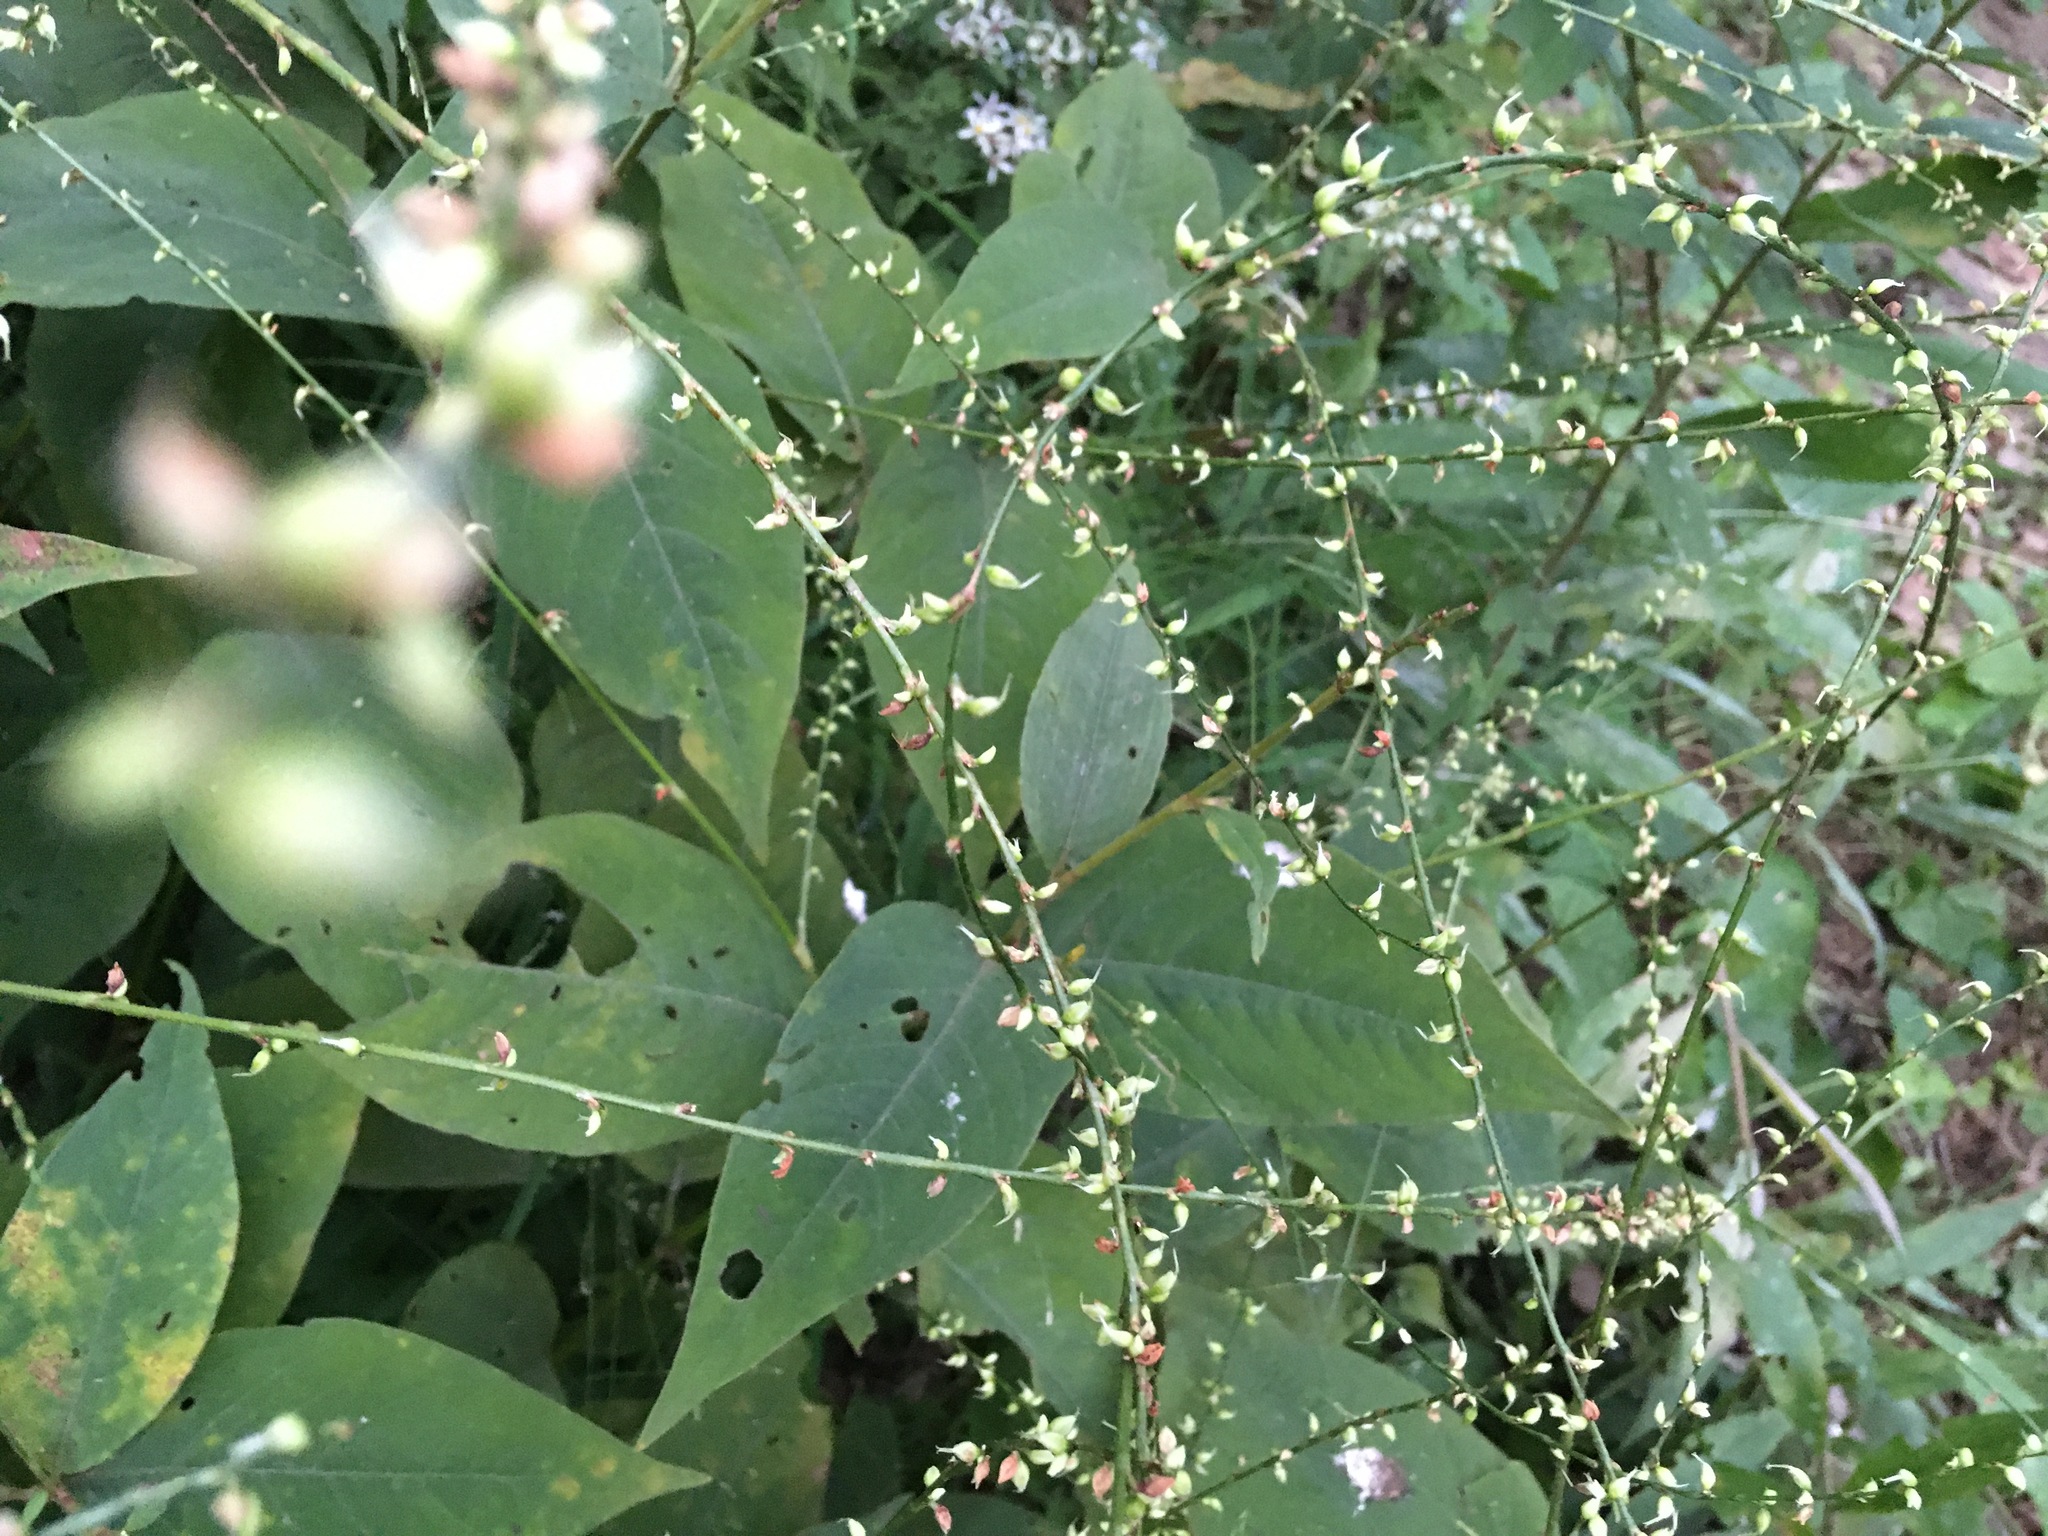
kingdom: Plantae
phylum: Tracheophyta
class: Magnoliopsida
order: Caryophyllales
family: Polygonaceae
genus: Persicaria
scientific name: Persicaria virginiana
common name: Jumpseed
